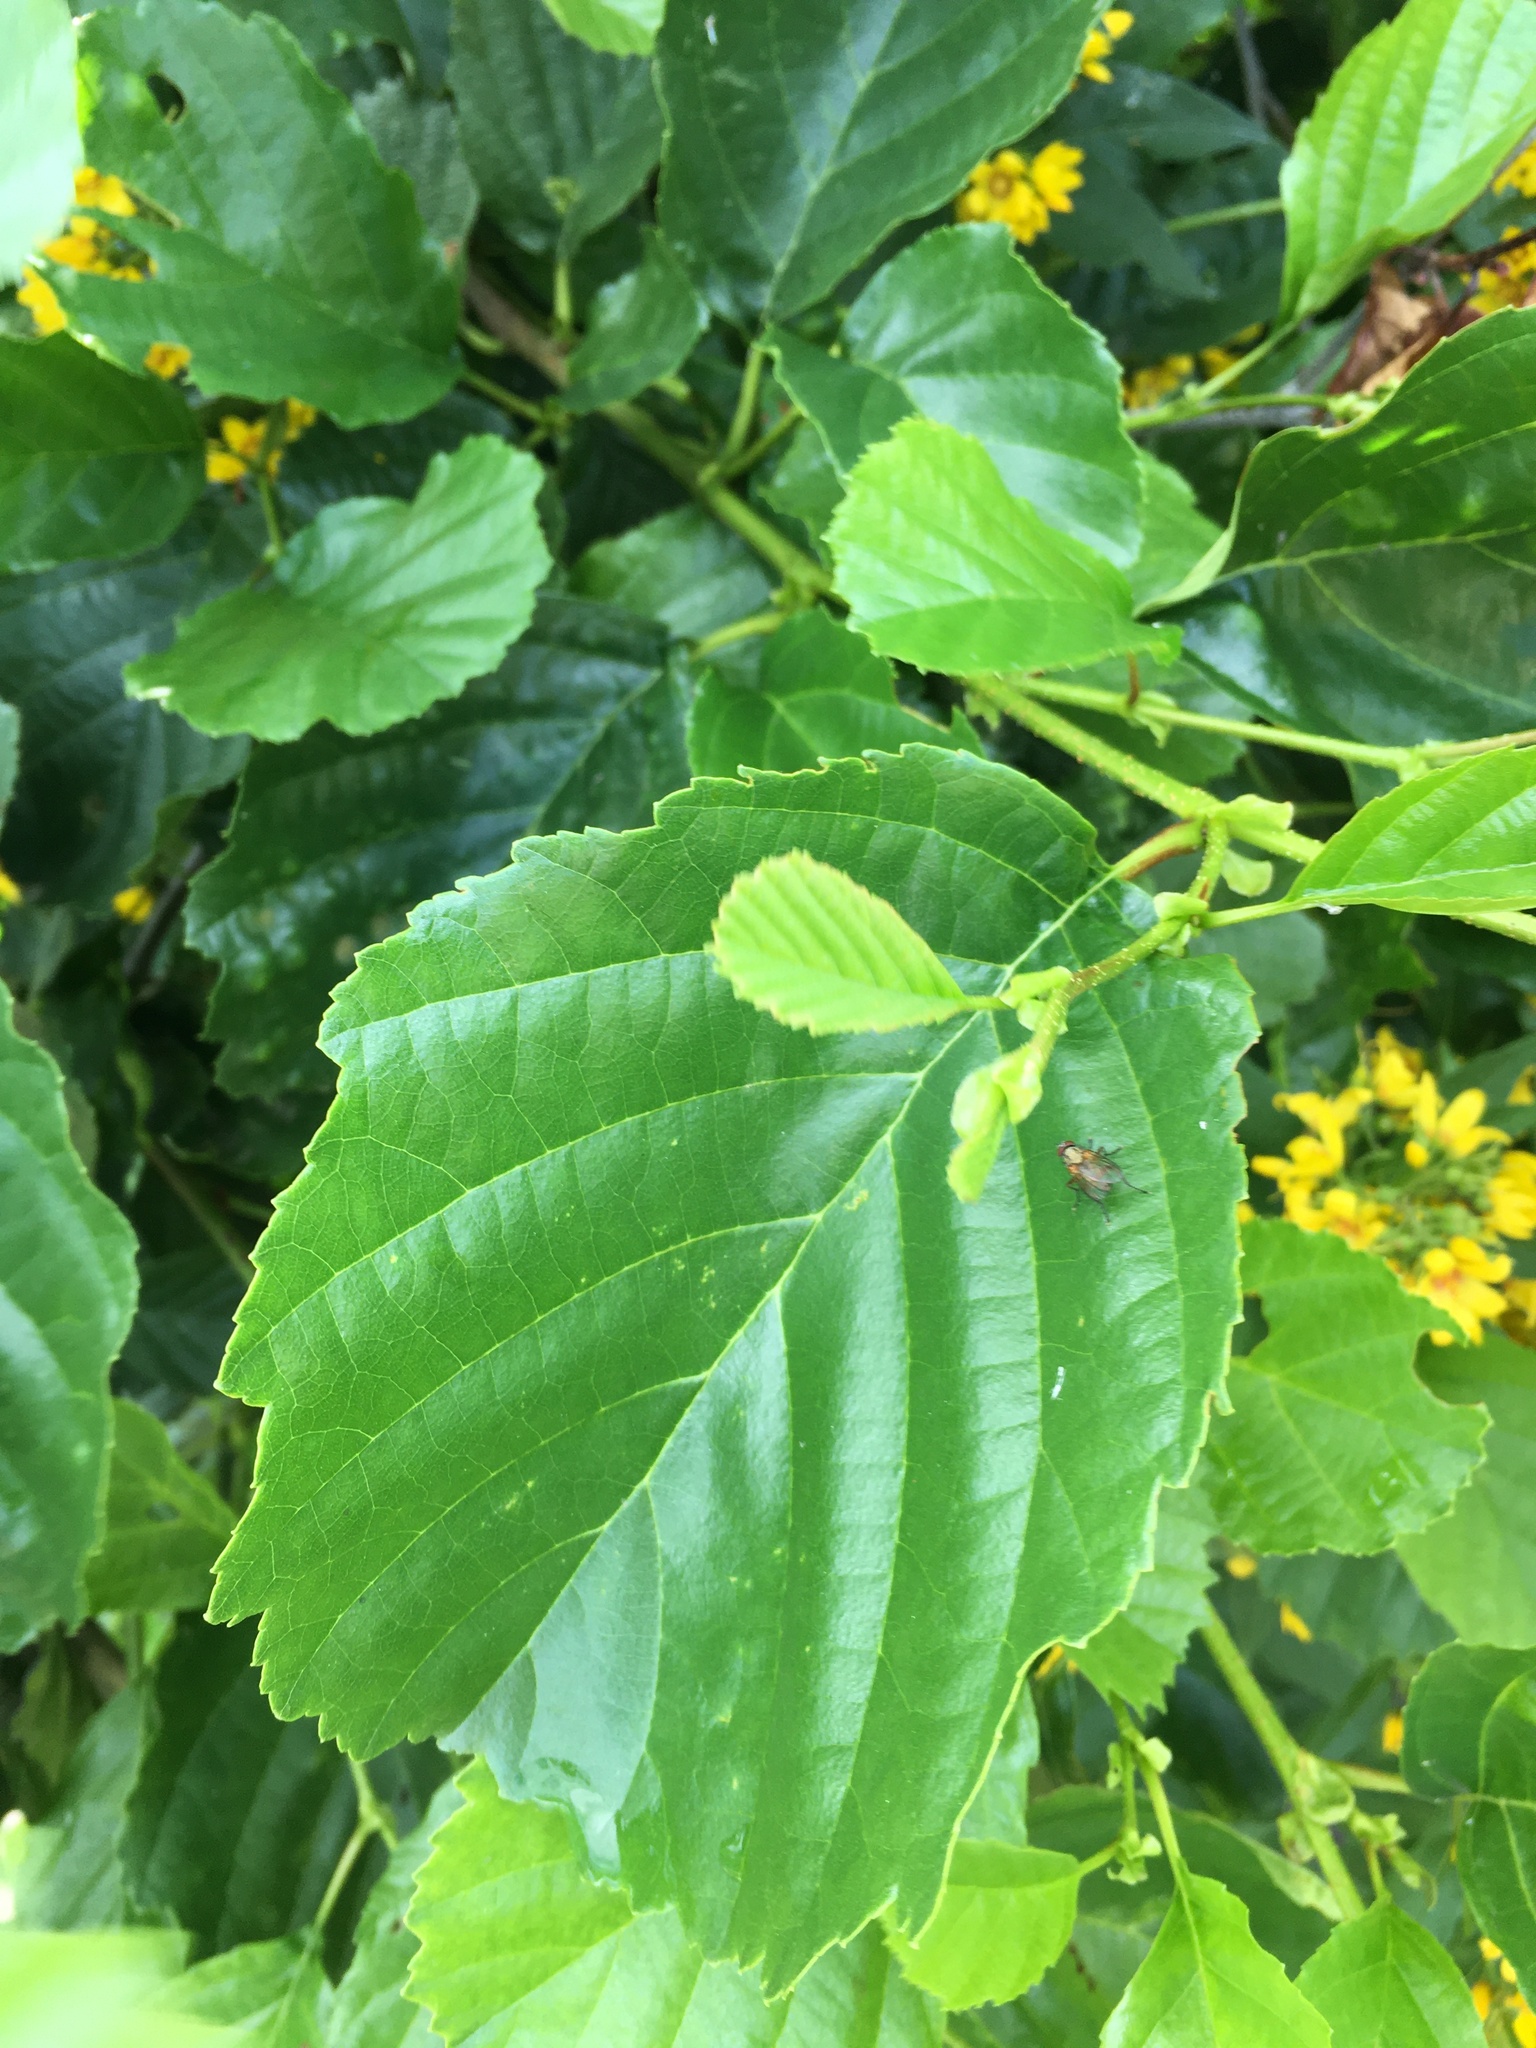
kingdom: Plantae
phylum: Tracheophyta
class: Magnoliopsida
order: Fagales
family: Betulaceae
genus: Alnus
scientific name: Alnus glutinosa
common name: Black alder
